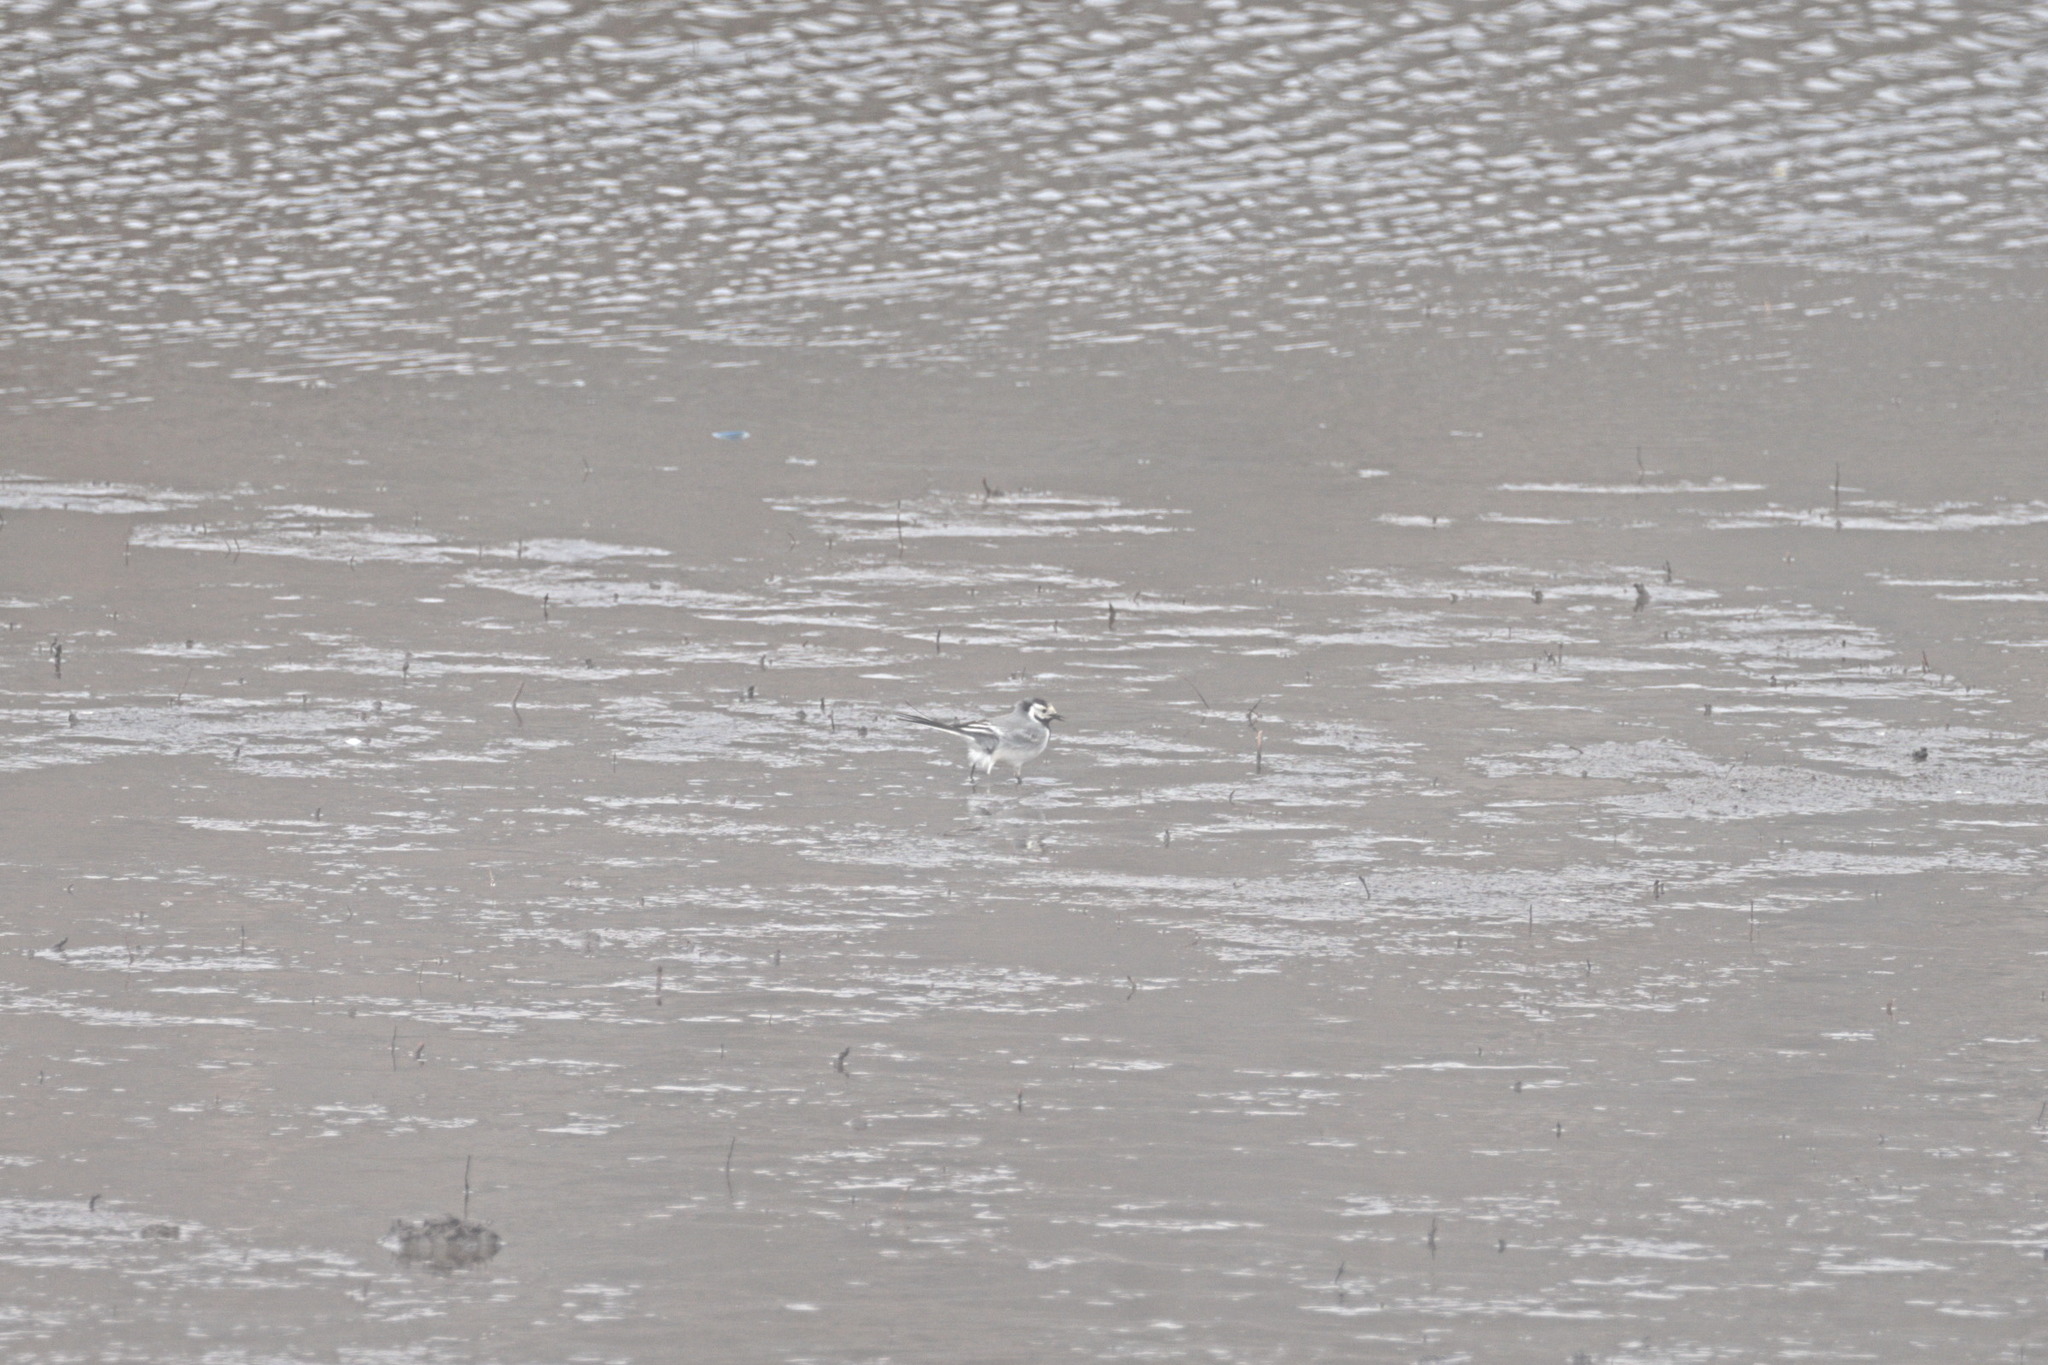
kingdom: Animalia
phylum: Chordata
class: Aves
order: Passeriformes
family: Motacillidae
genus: Motacilla
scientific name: Motacilla alba
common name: White wagtail
